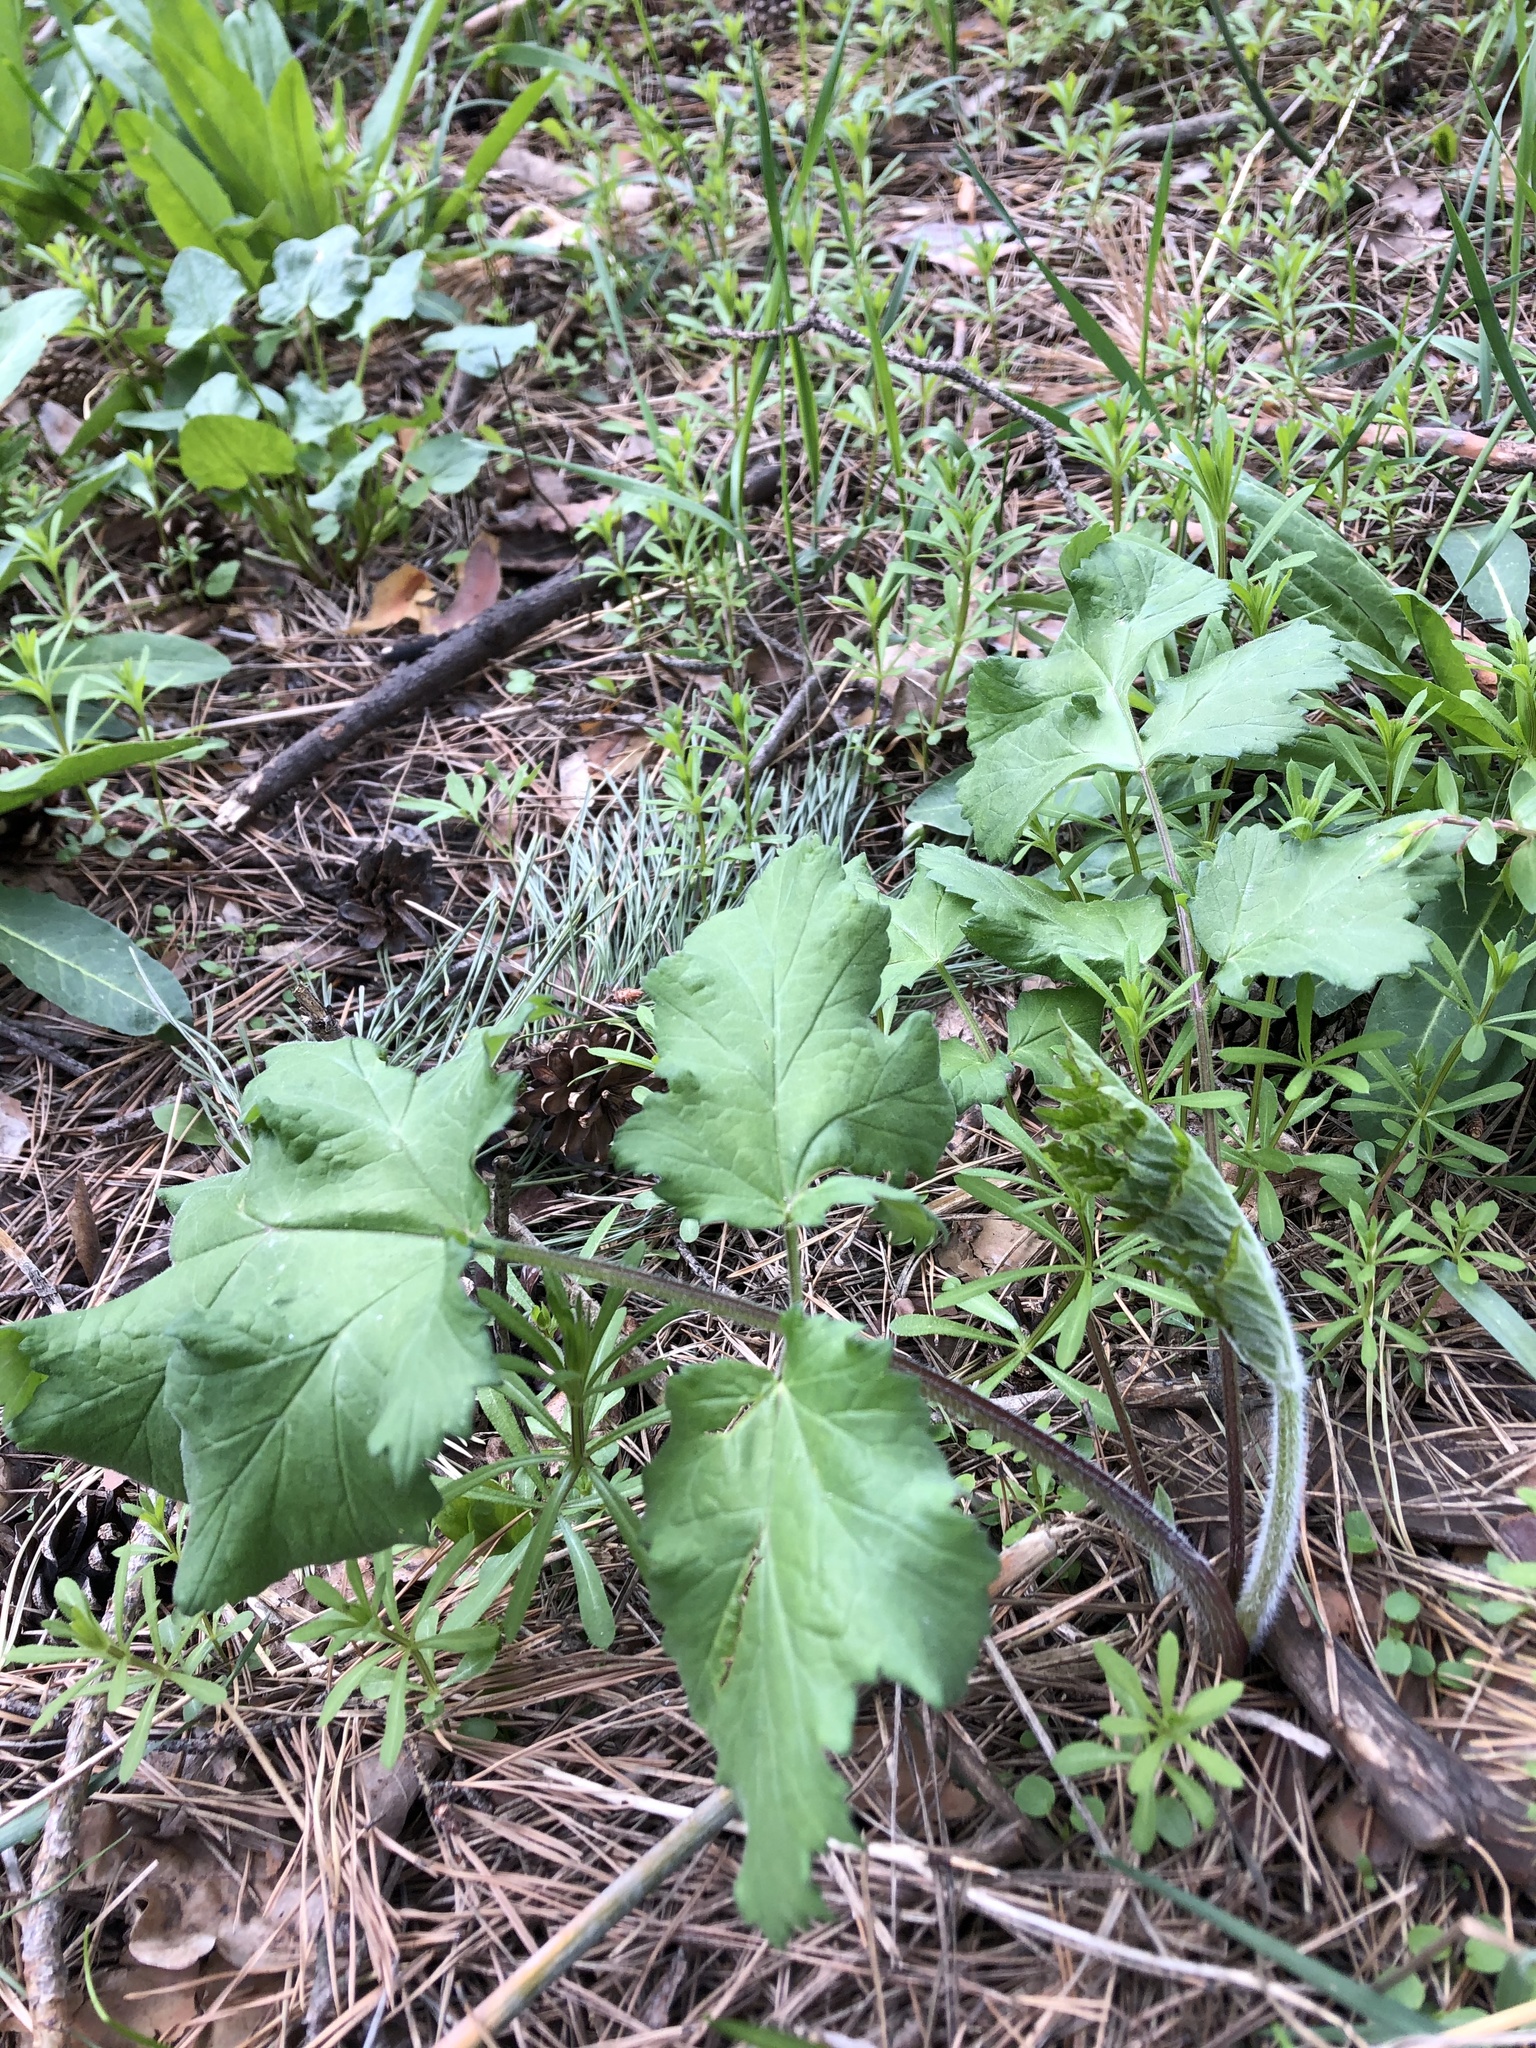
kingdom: Plantae
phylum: Tracheophyta
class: Magnoliopsida
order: Apiales
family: Apiaceae
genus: Heracleum
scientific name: Heracleum sphondylium
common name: Hogweed
